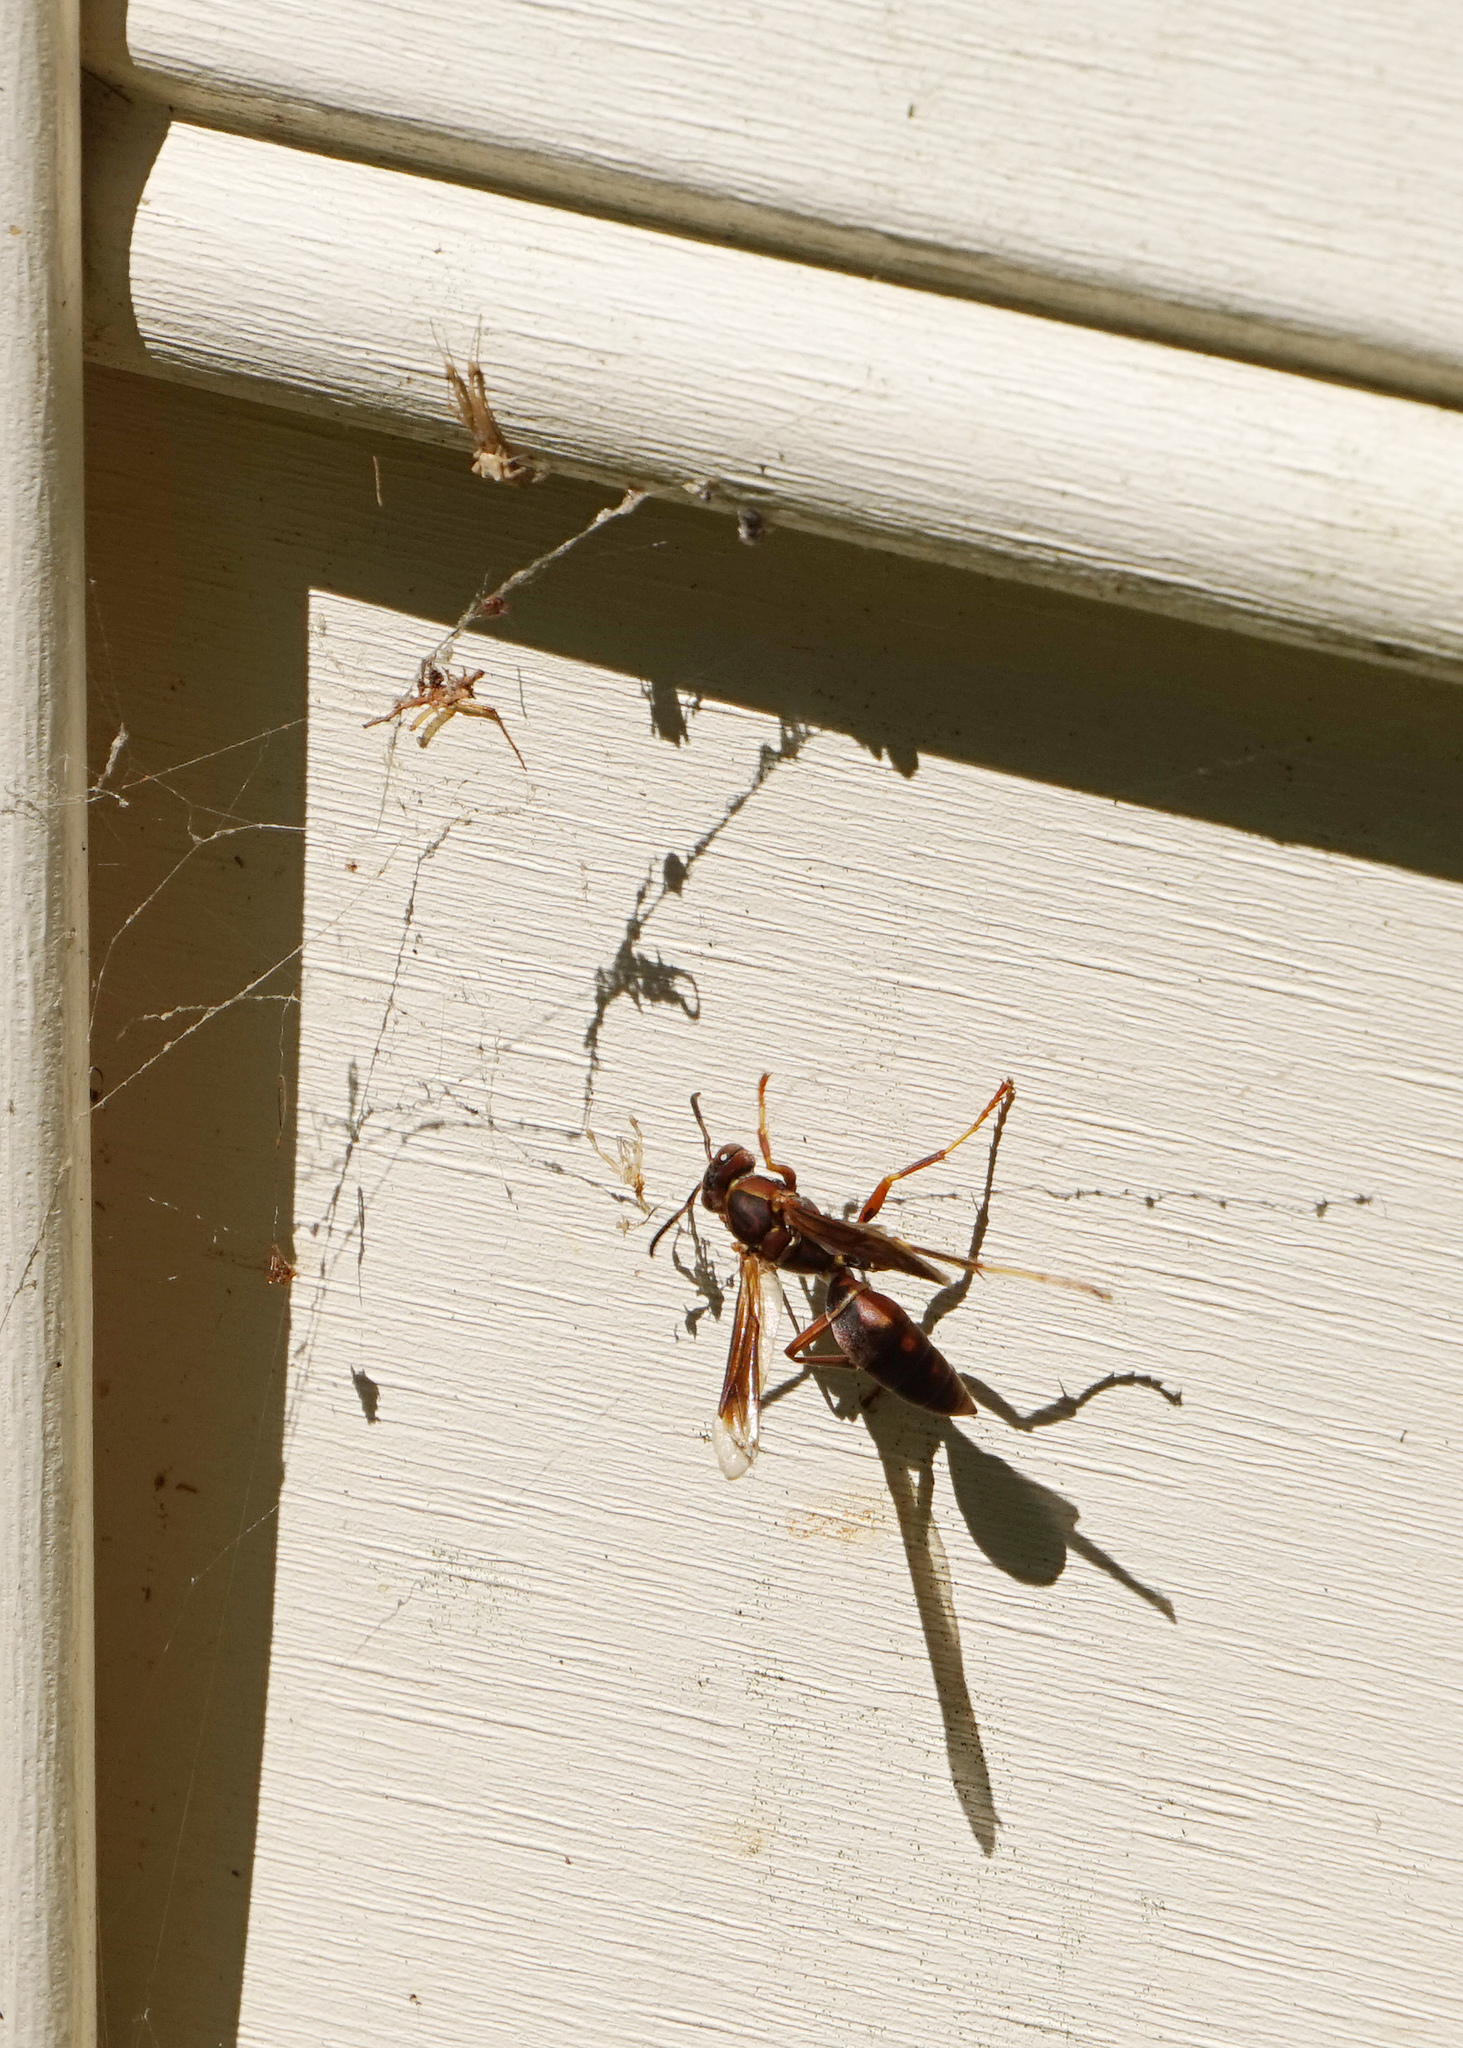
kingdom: Animalia
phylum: Arthropoda
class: Insecta
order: Hymenoptera
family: Eumenidae
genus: Polistes
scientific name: Polistes fuscatus
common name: Dark paper wasp
